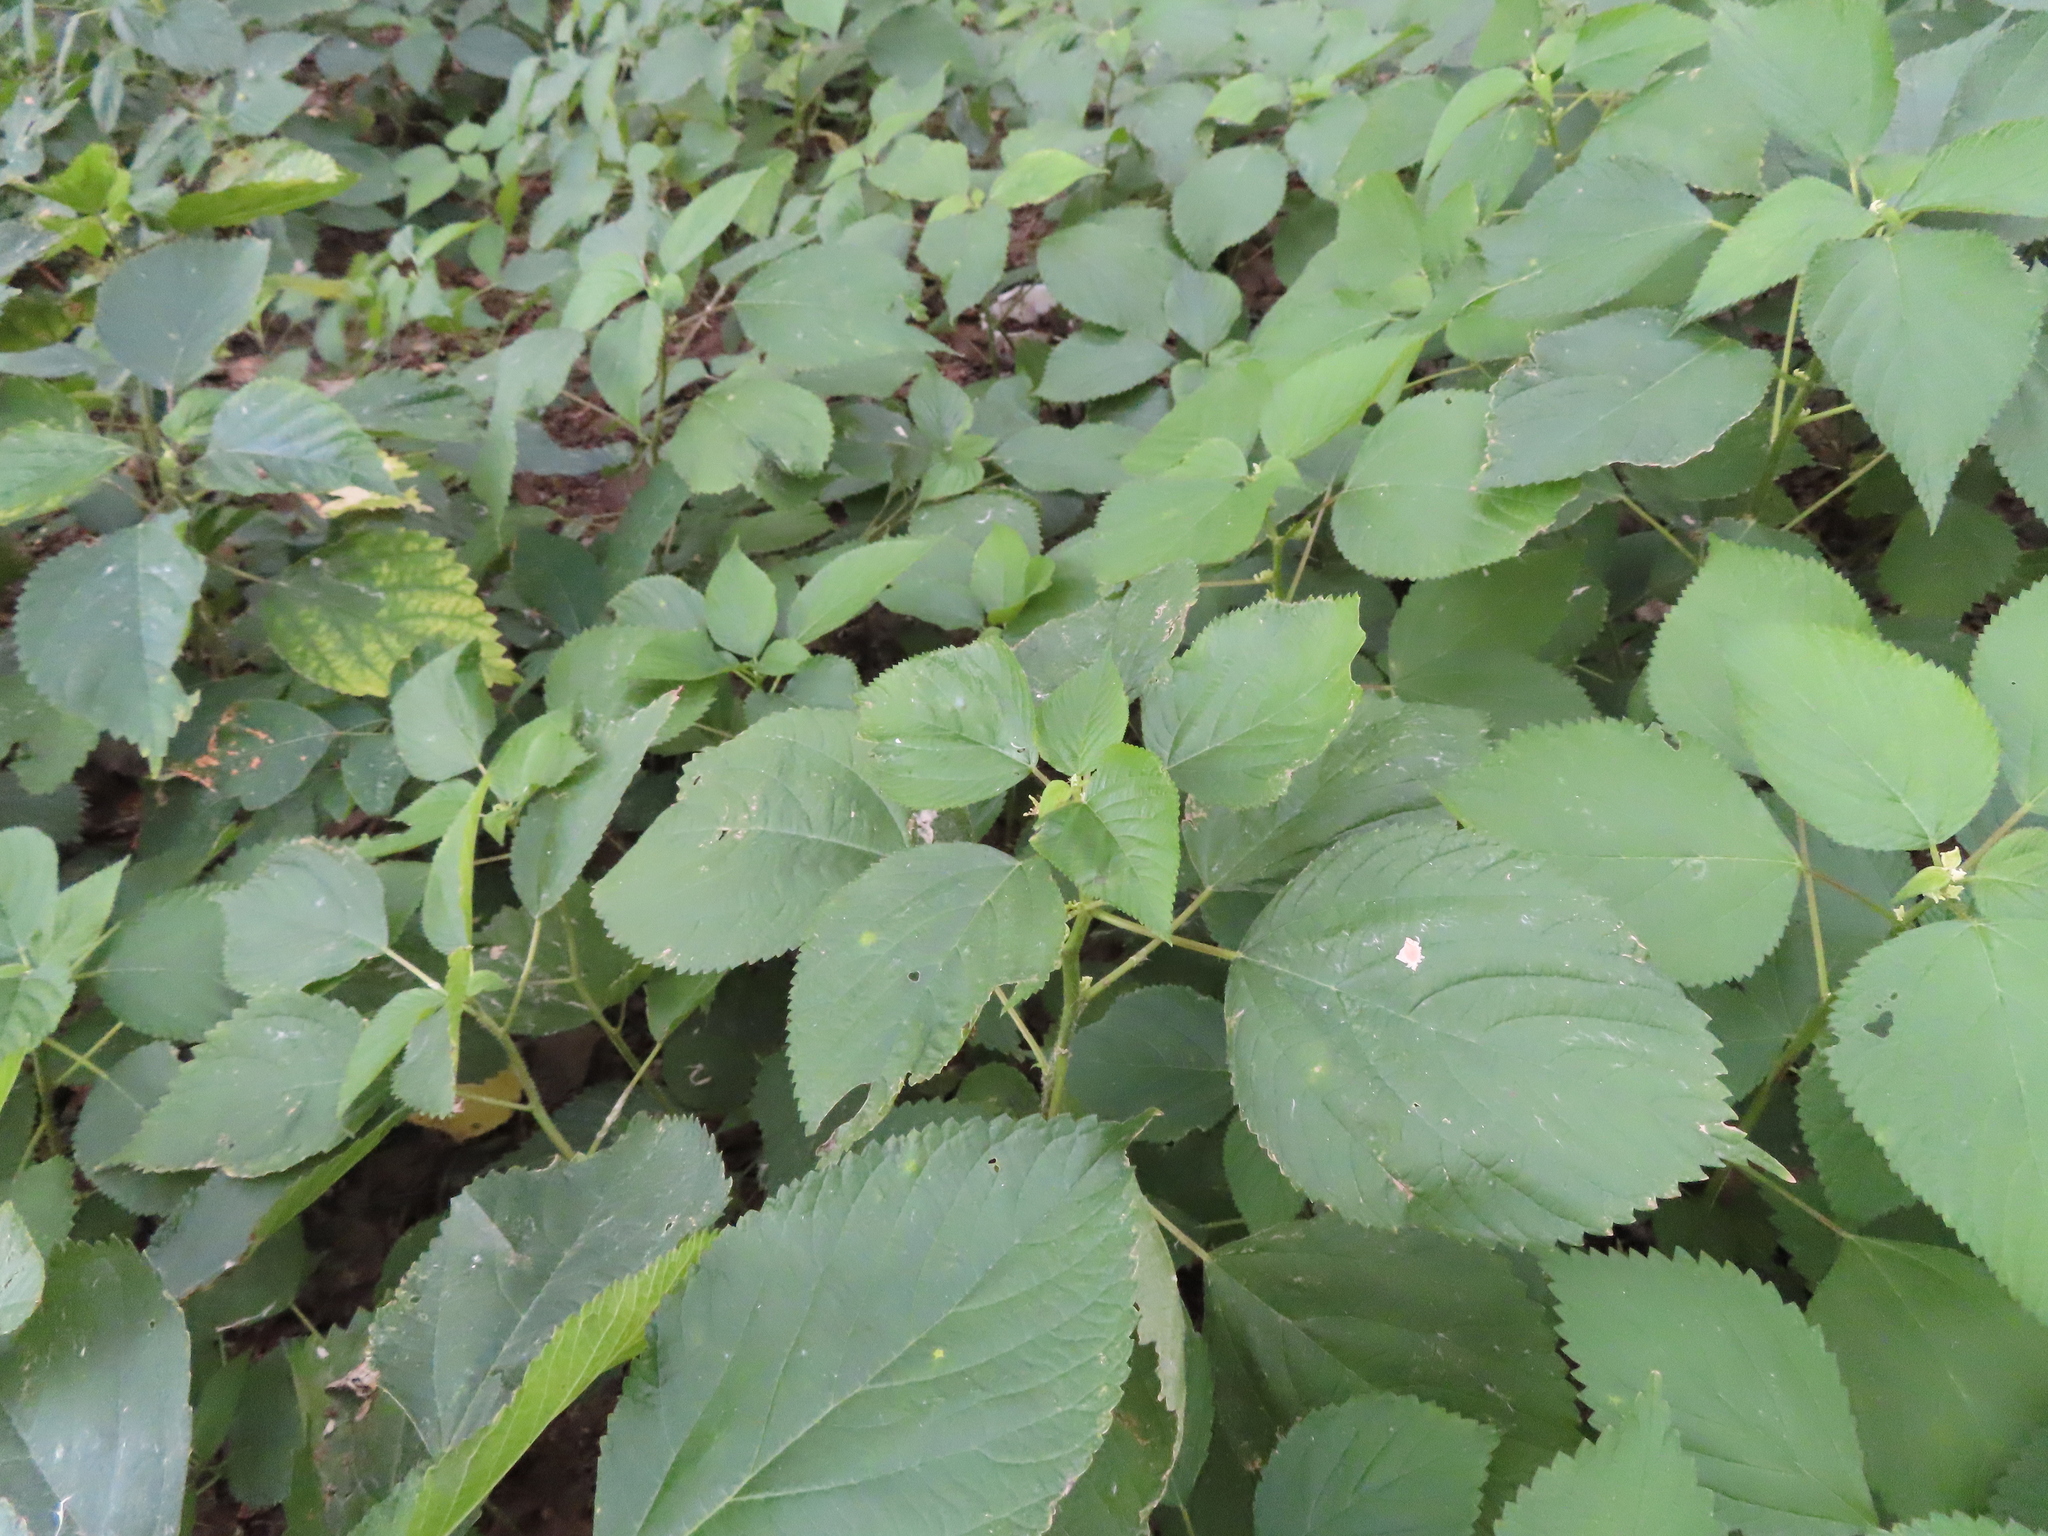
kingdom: Plantae
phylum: Tracheophyta
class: Magnoliopsida
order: Rosales
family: Urticaceae
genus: Laportea
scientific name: Laportea canadensis
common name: Canada nettle
